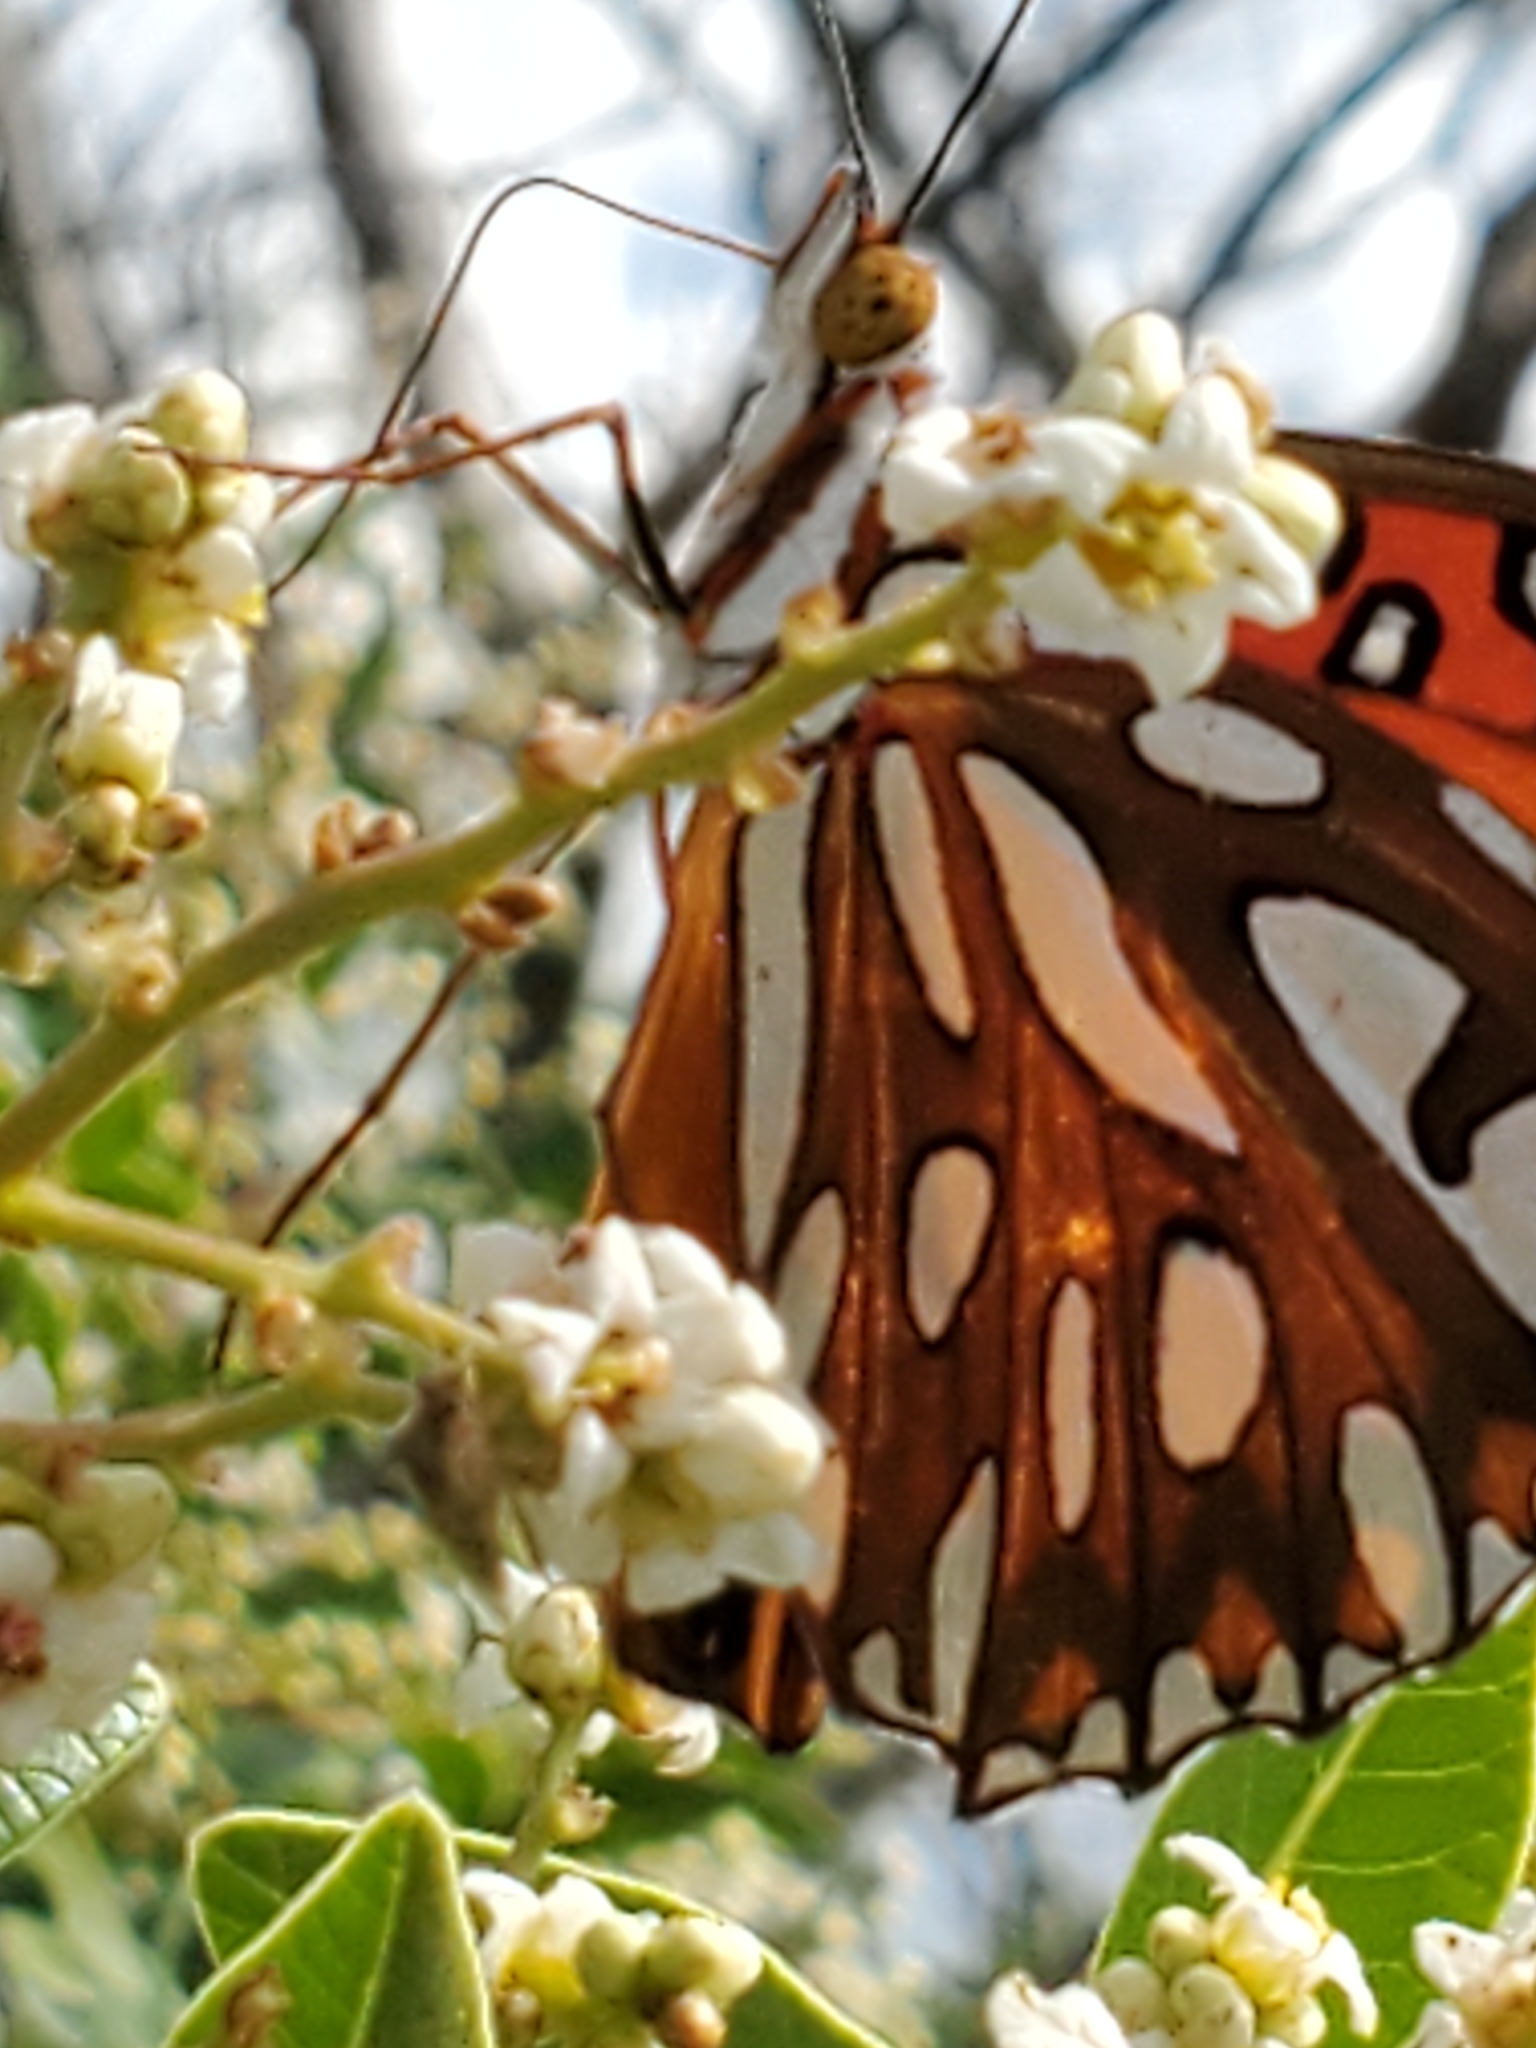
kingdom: Animalia
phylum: Arthropoda
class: Insecta
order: Lepidoptera
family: Nymphalidae
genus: Dione
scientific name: Dione vanillae
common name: Gulf fritillary
